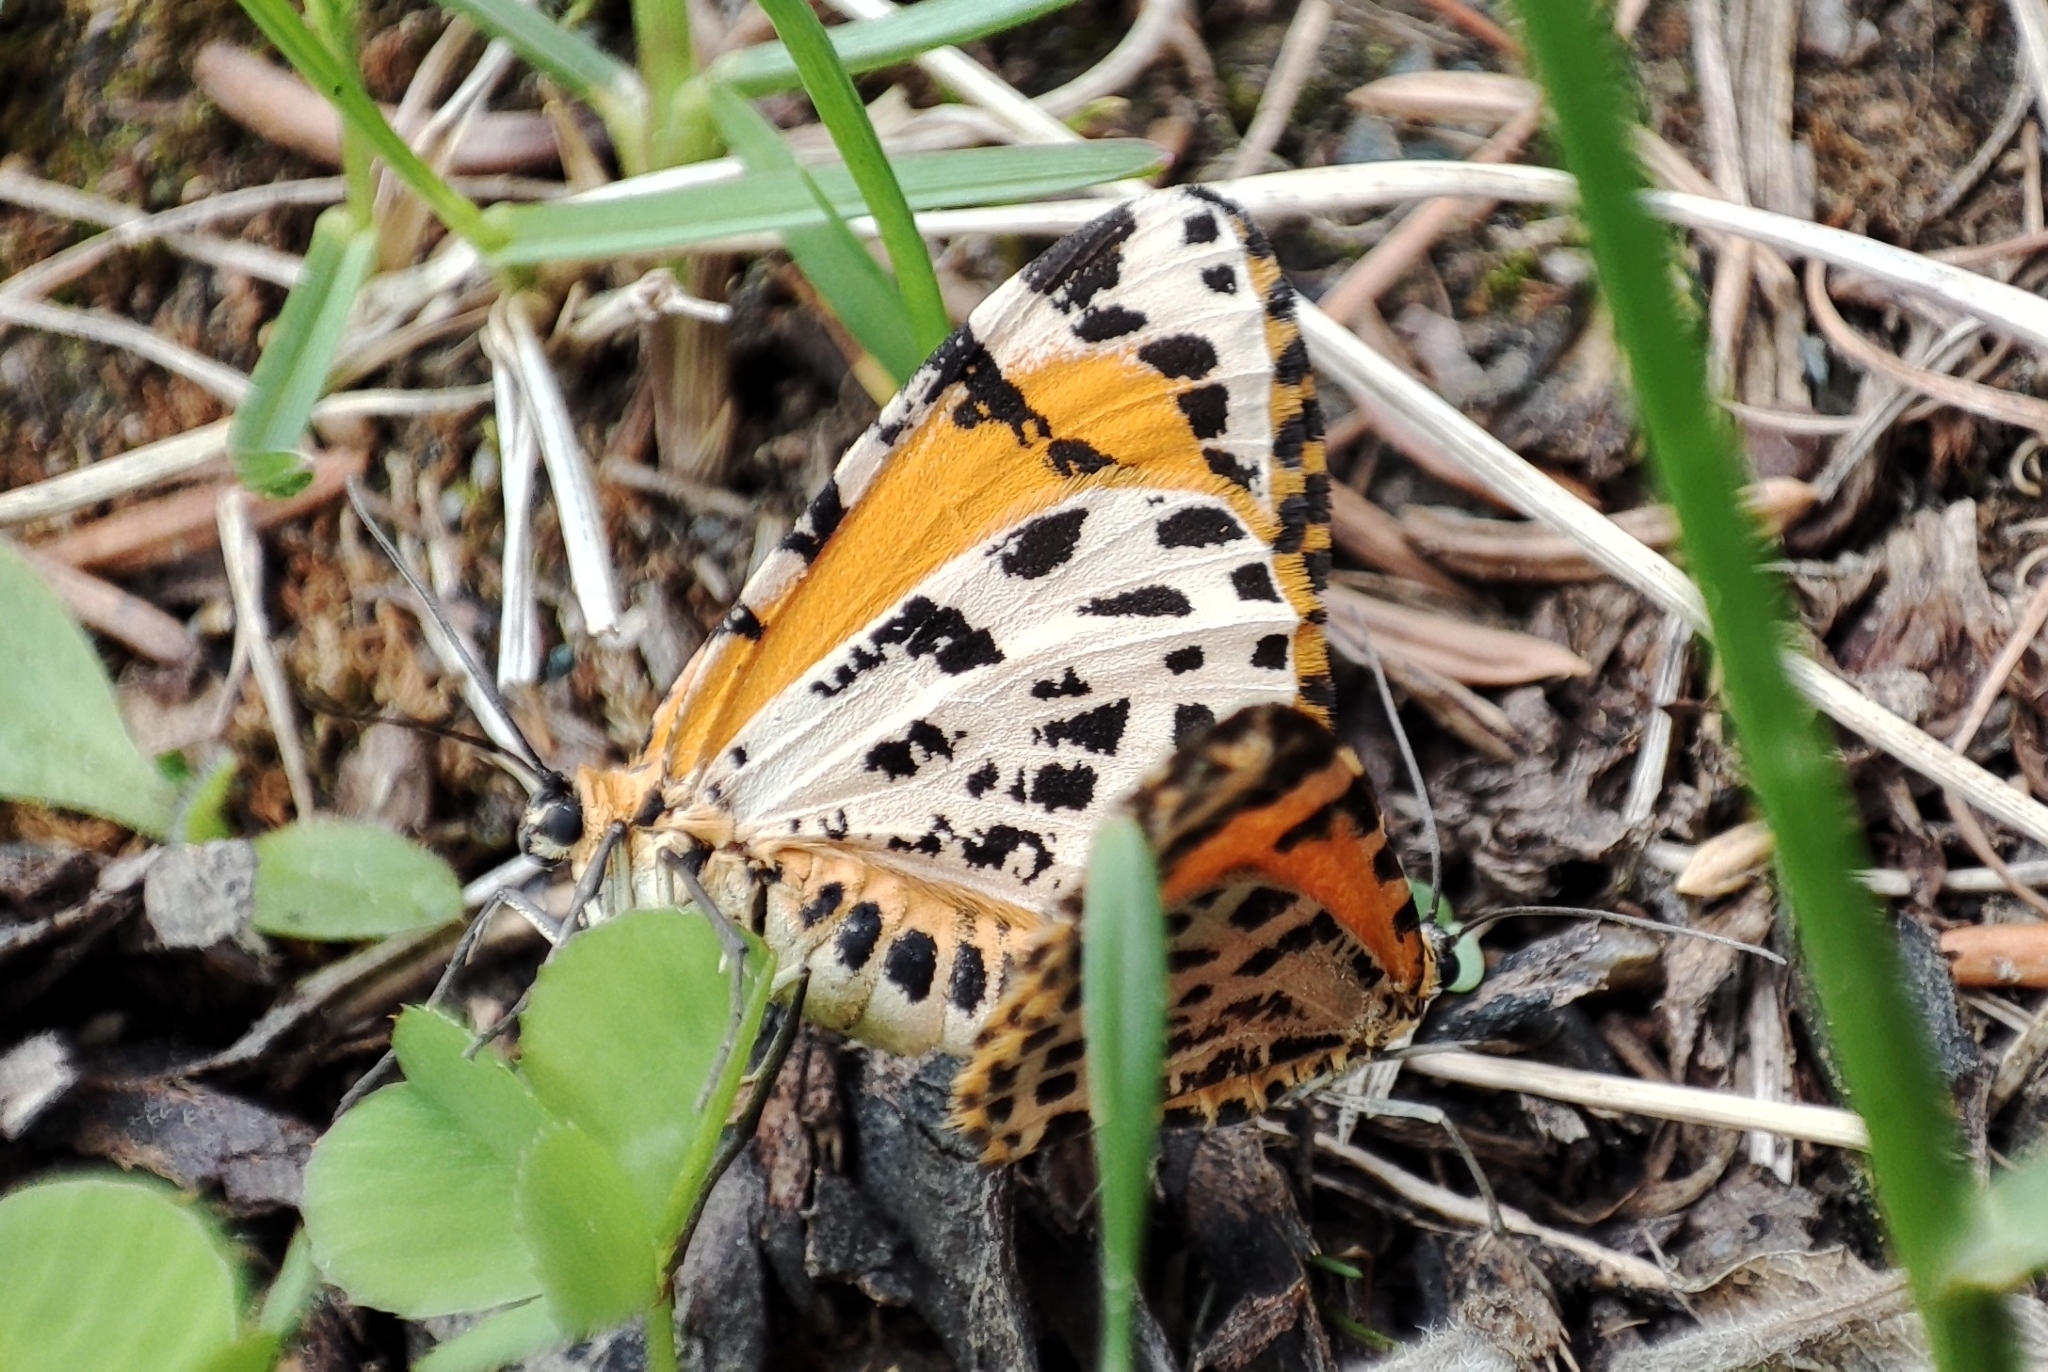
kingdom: Animalia
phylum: Arthropoda
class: Insecta
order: Lepidoptera
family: Geometridae
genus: Stamnodes
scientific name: Stamnodes danilovi
